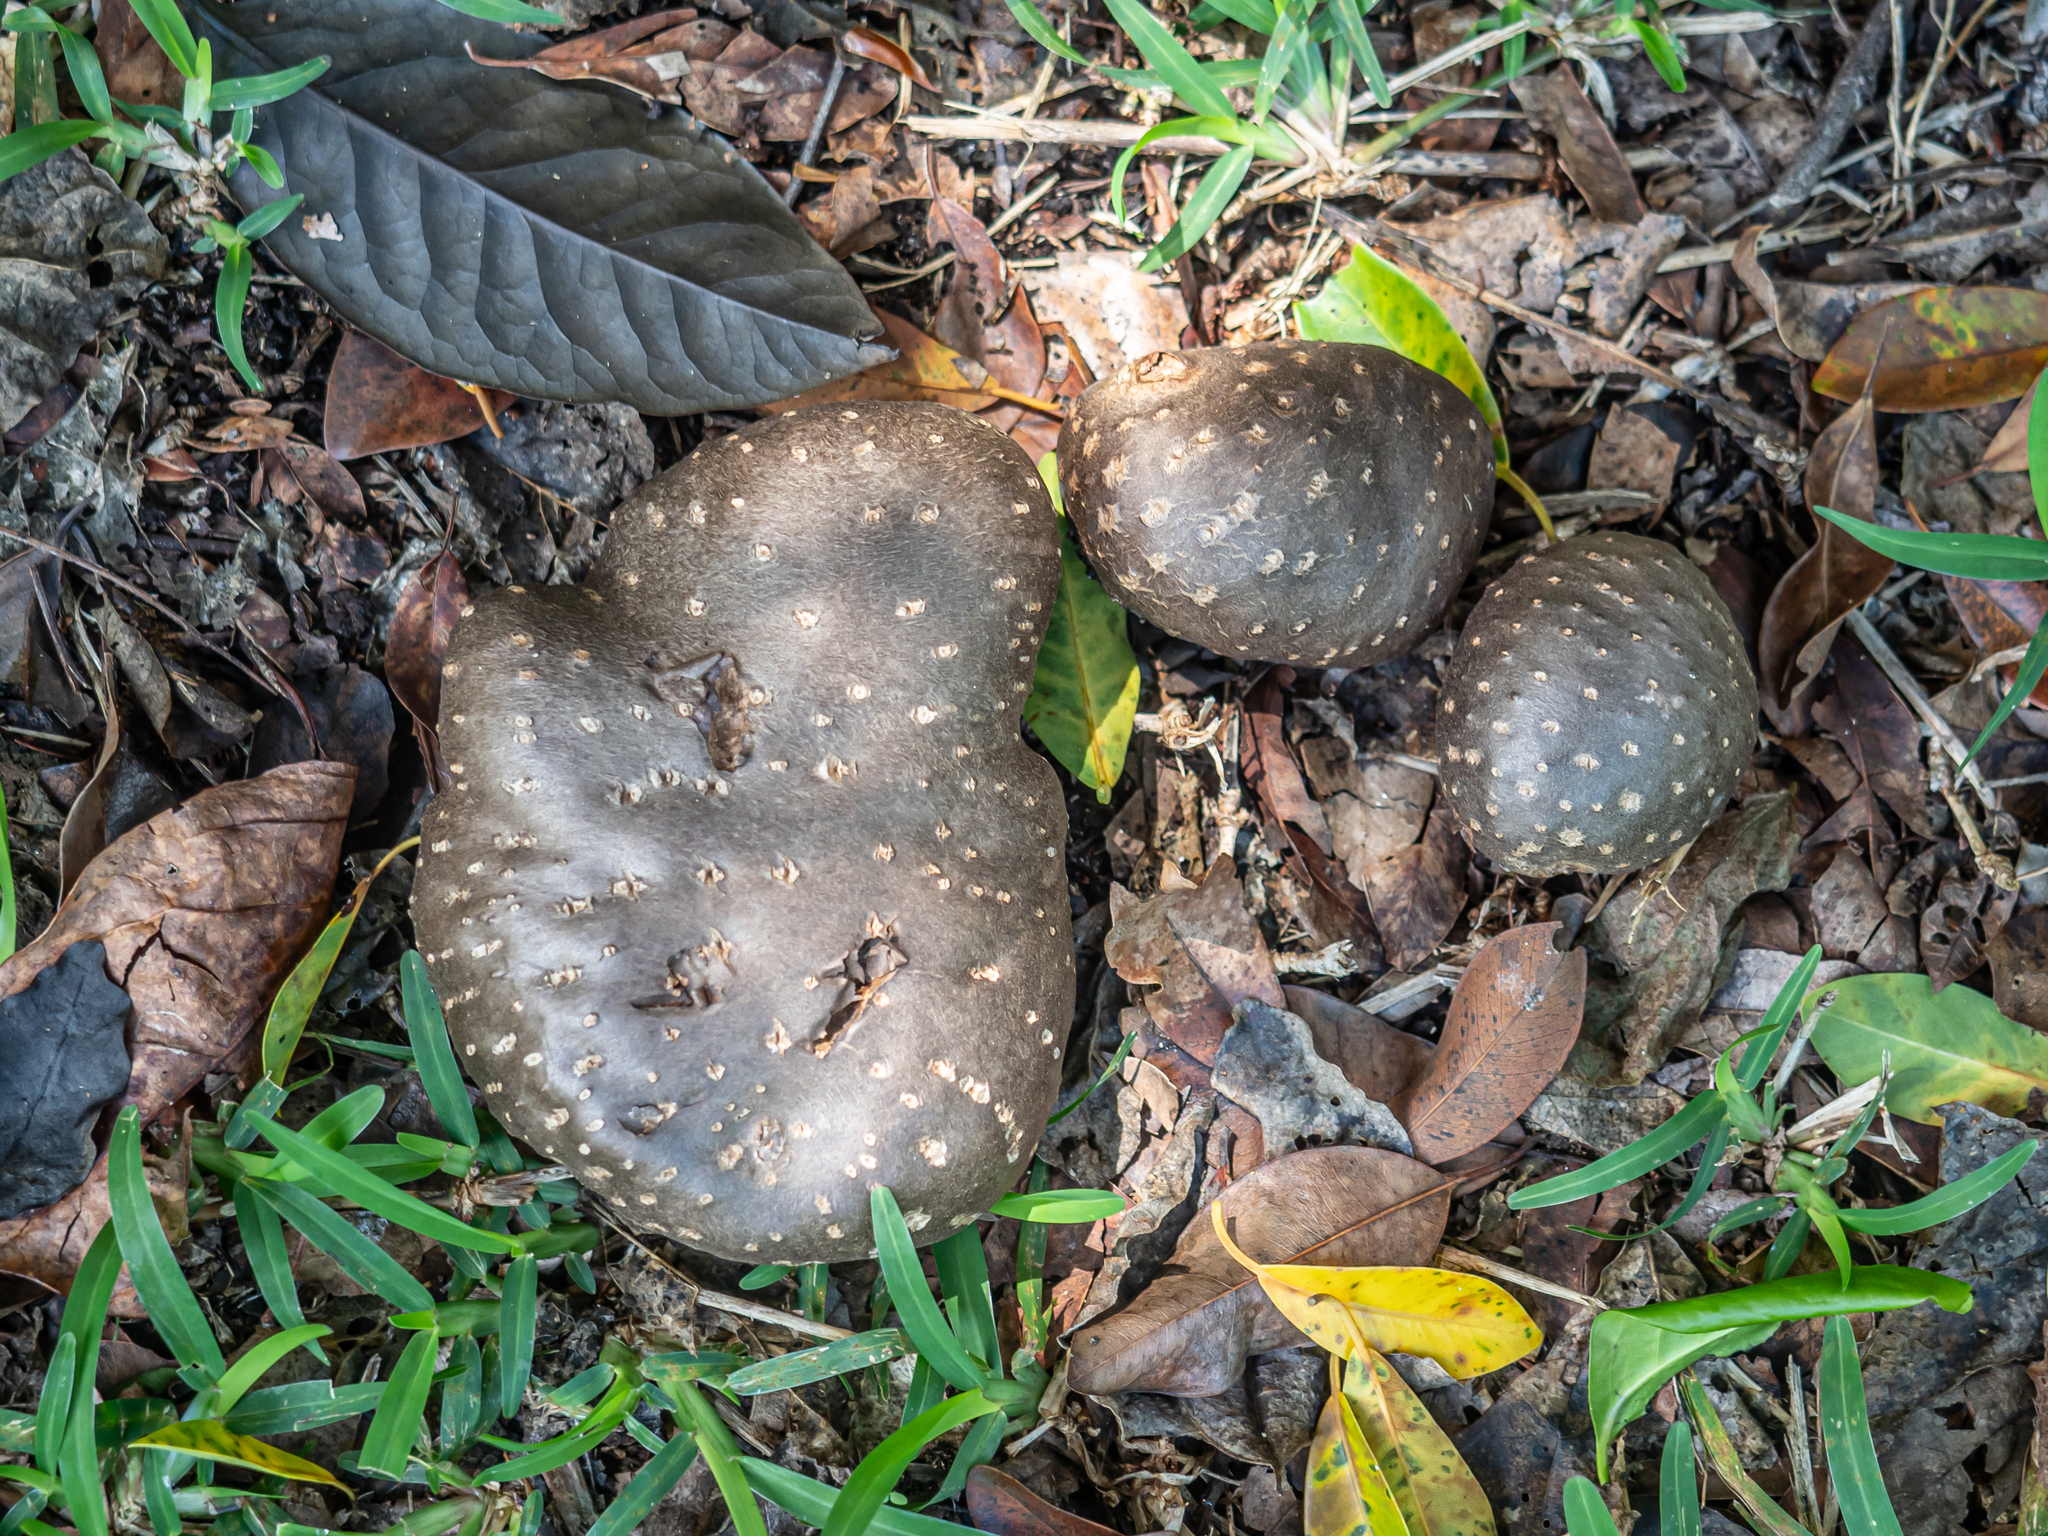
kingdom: Plantae
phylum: Tracheophyta
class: Liliopsida
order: Dioscoreales
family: Dioscoreaceae
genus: Dioscorea
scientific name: Dioscorea bulbifera
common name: Air yam
